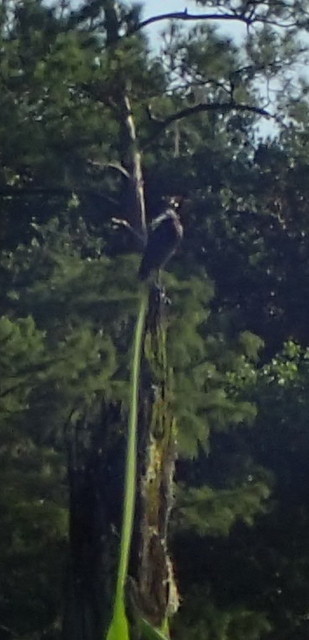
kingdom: Animalia
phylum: Chordata
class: Aves
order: Pelecaniformes
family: Ardeidae
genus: Ardea
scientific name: Ardea herodias
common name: Great blue heron
